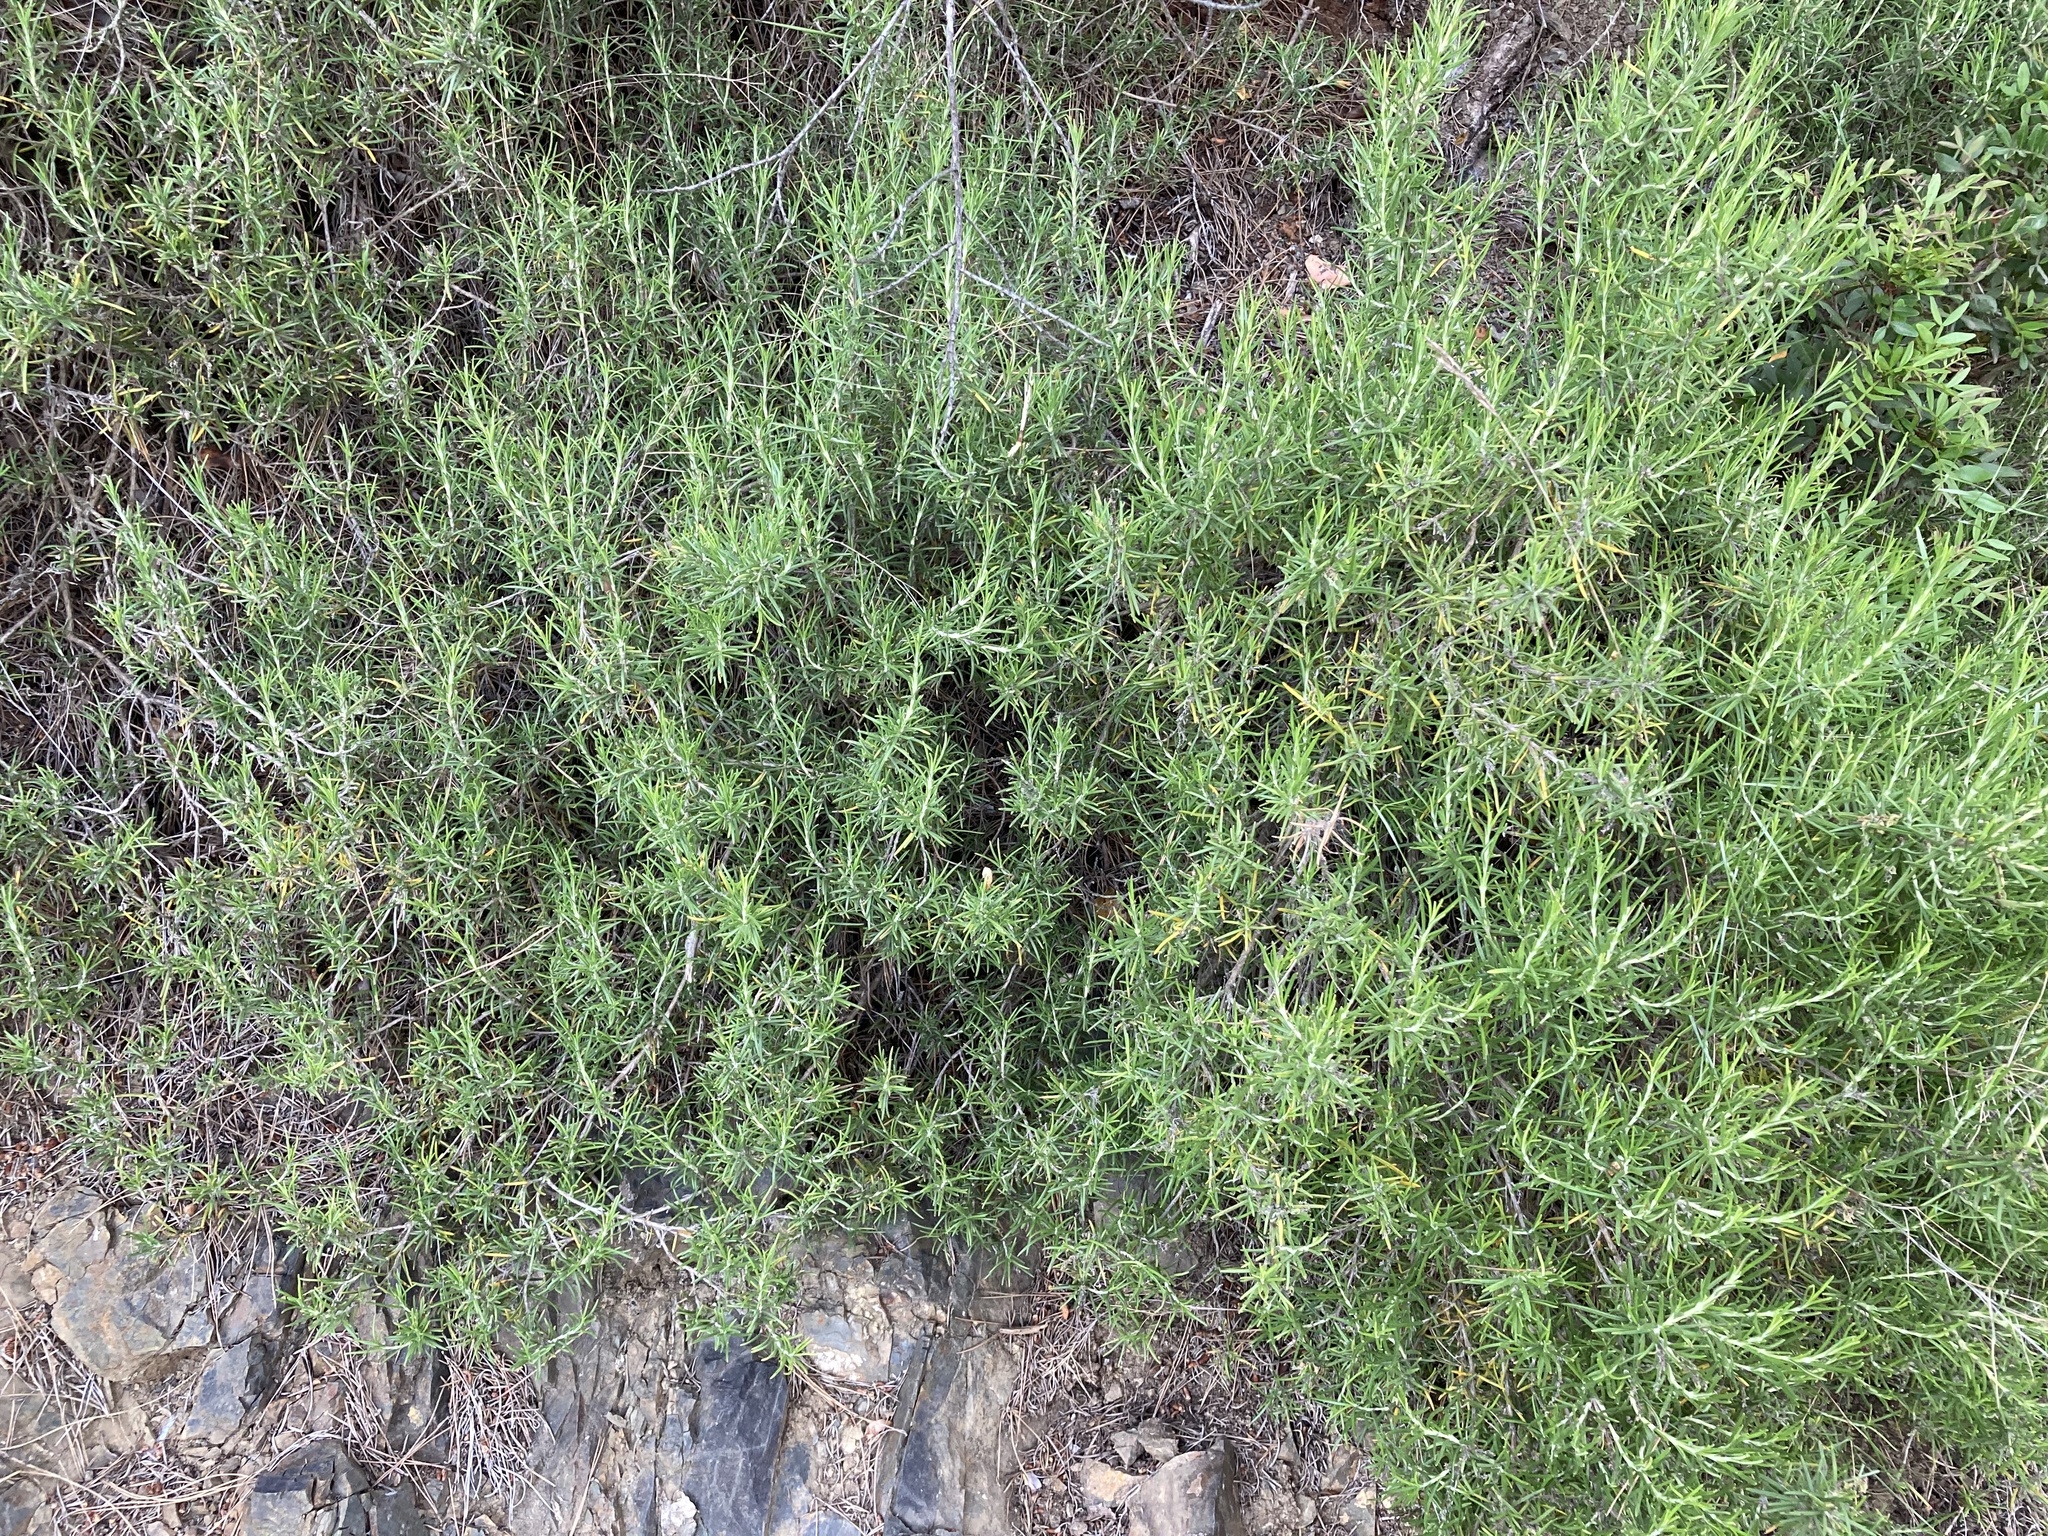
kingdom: Plantae
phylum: Tracheophyta
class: Magnoliopsida
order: Lamiales
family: Lamiaceae
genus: Salvia
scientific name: Salvia rosmarinus
